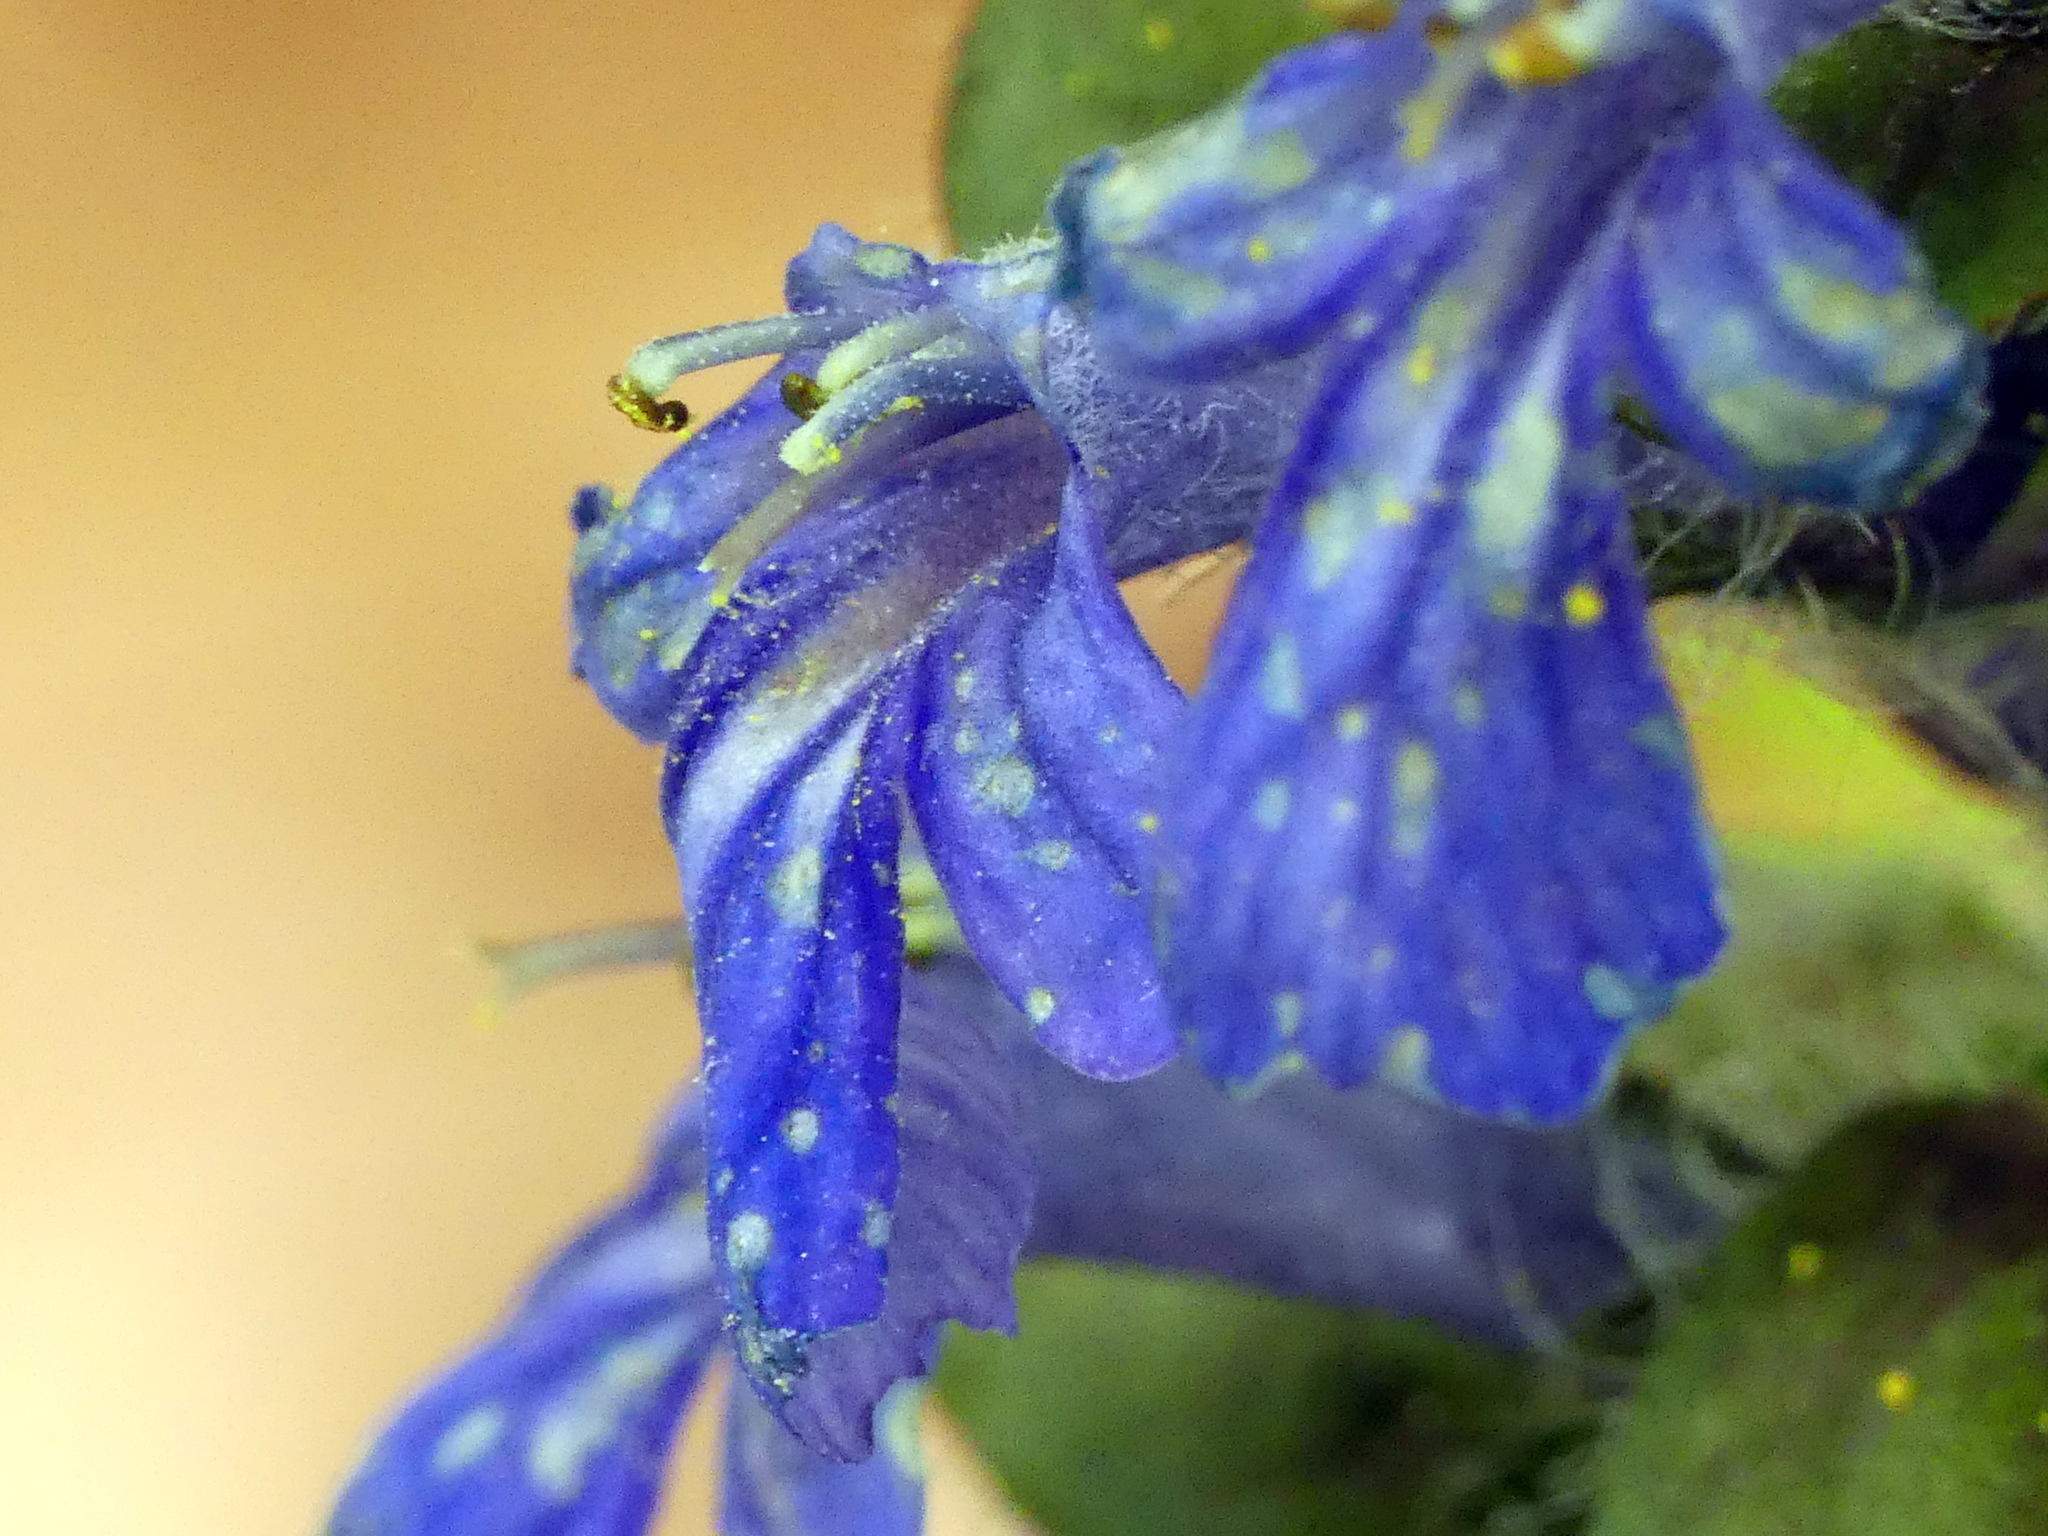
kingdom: Plantae
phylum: Tracheophyta
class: Magnoliopsida
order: Lamiales
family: Lamiaceae
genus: Ajuga
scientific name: Ajuga reptans
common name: Bugle
